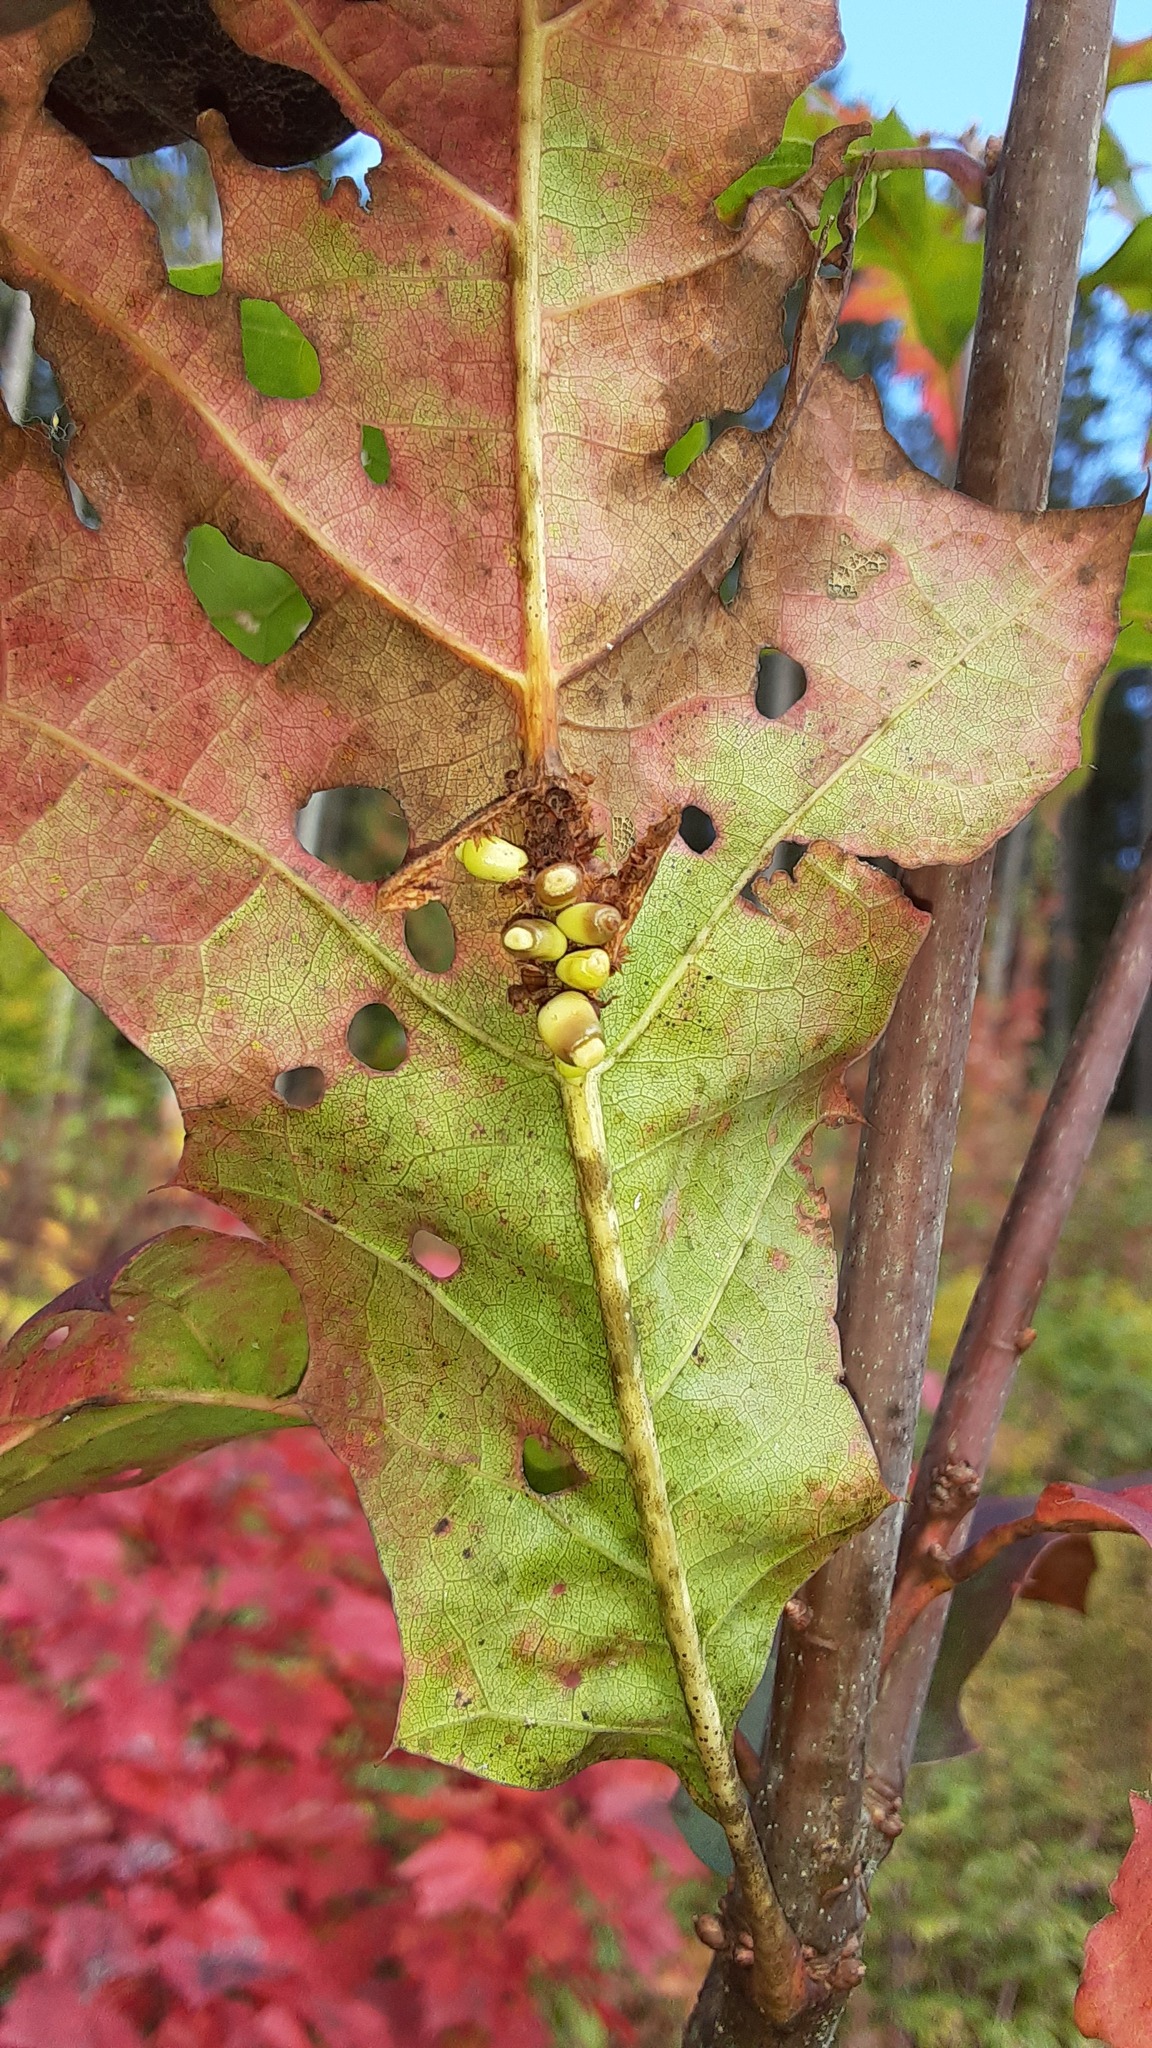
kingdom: Animalia
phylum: Arthropoda
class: Insecta
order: Hymenoptera
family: Cynipidae
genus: Kokkocynips
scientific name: Kokkocynips decidua
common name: Oak wheat gall
